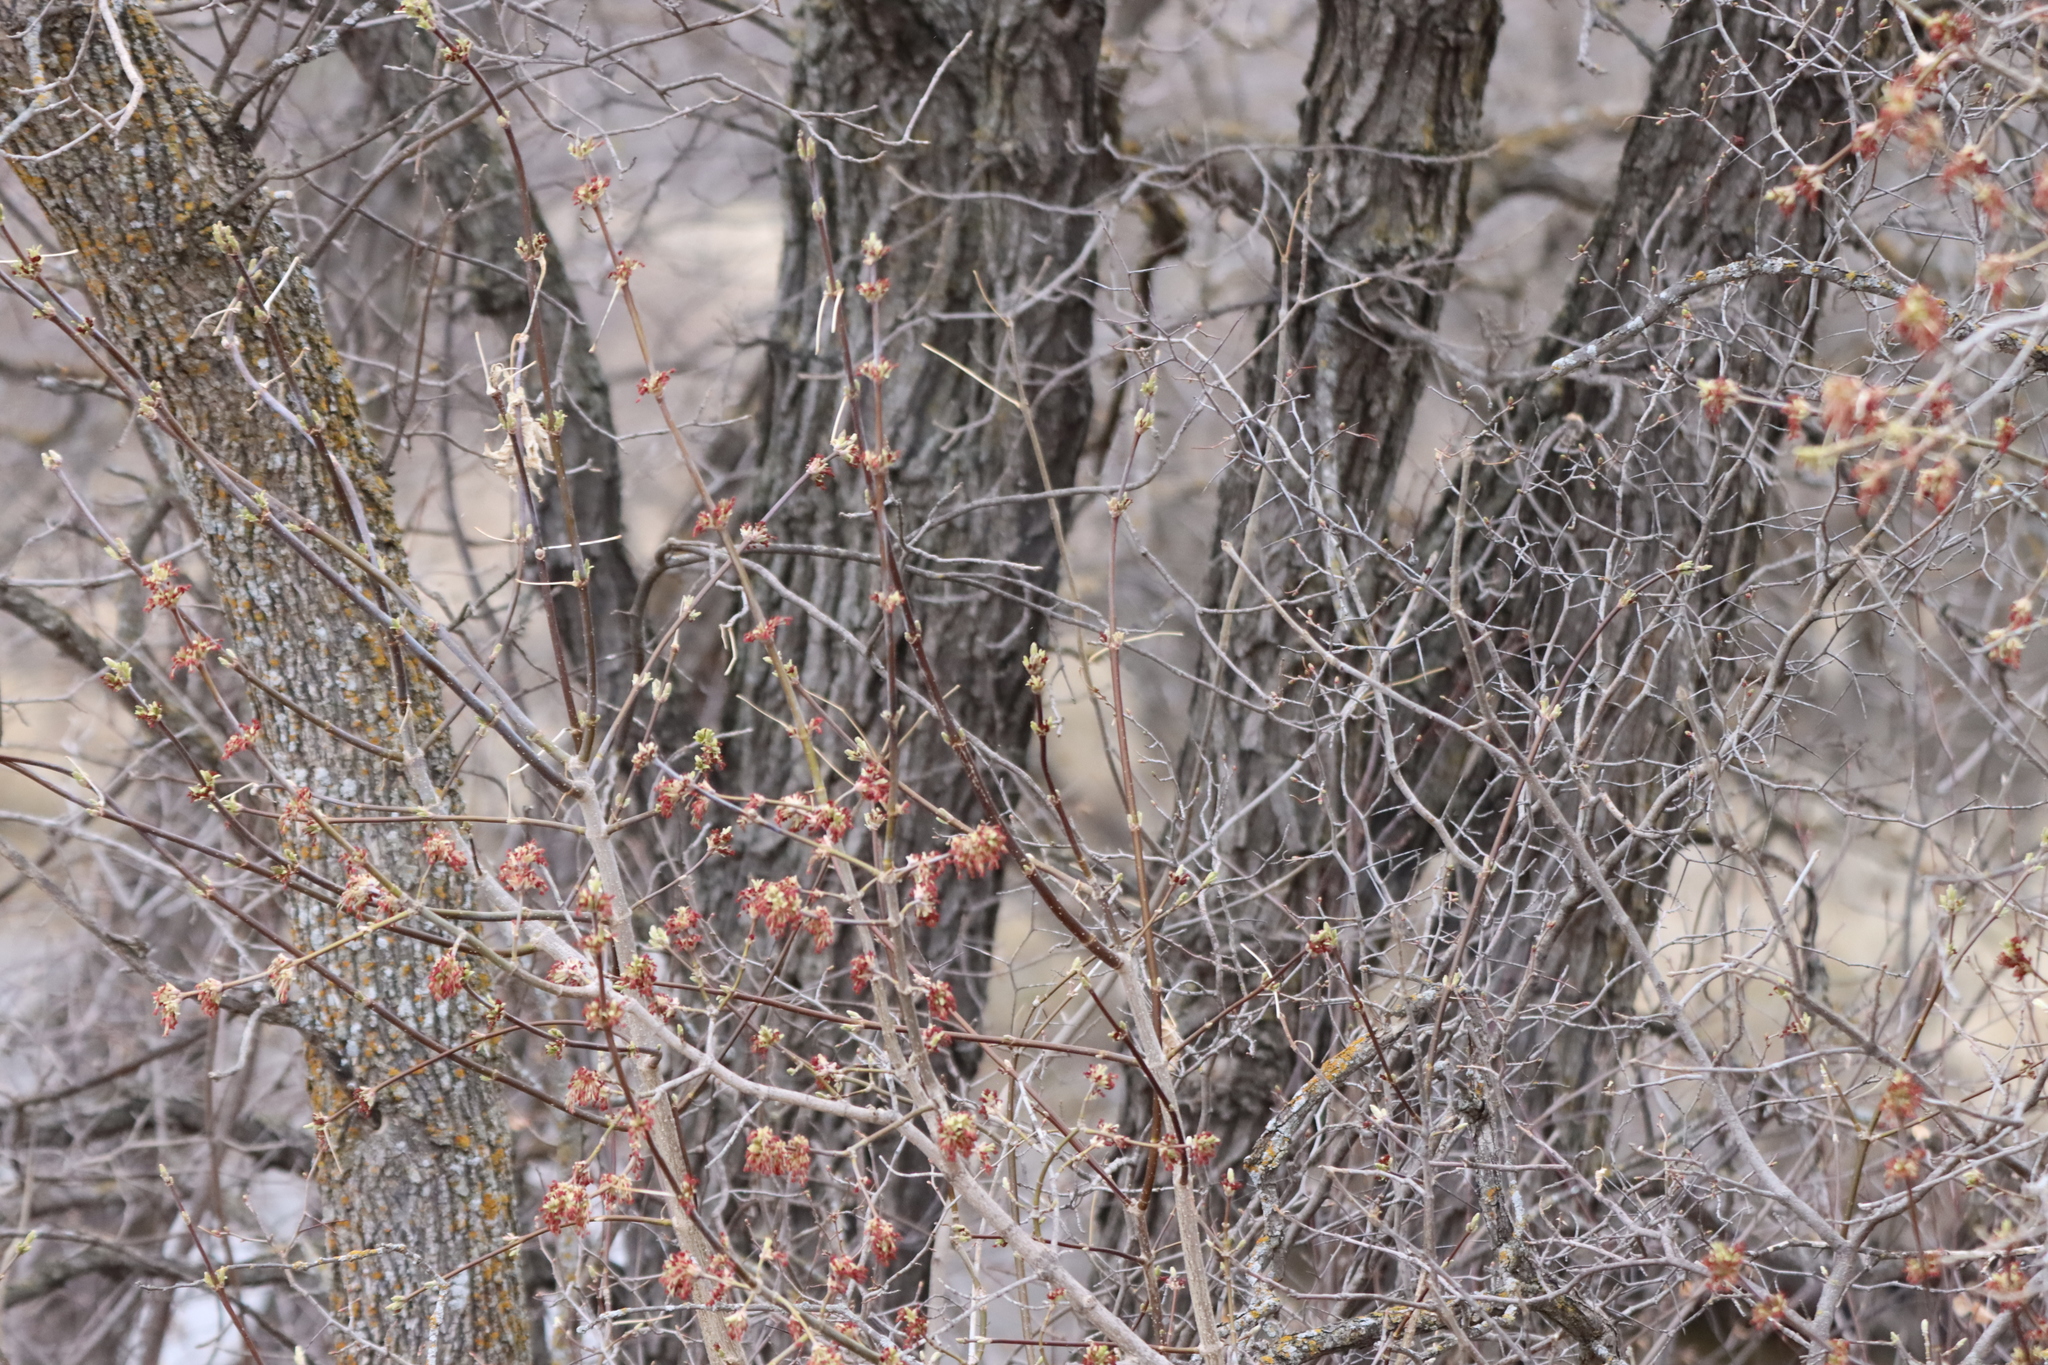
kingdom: Plantae
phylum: Tracheophyta
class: Magnoliopsida
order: Sapindales
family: Sapindaceae
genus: Acer
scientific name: Acer negundo
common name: Ashleaf maple
